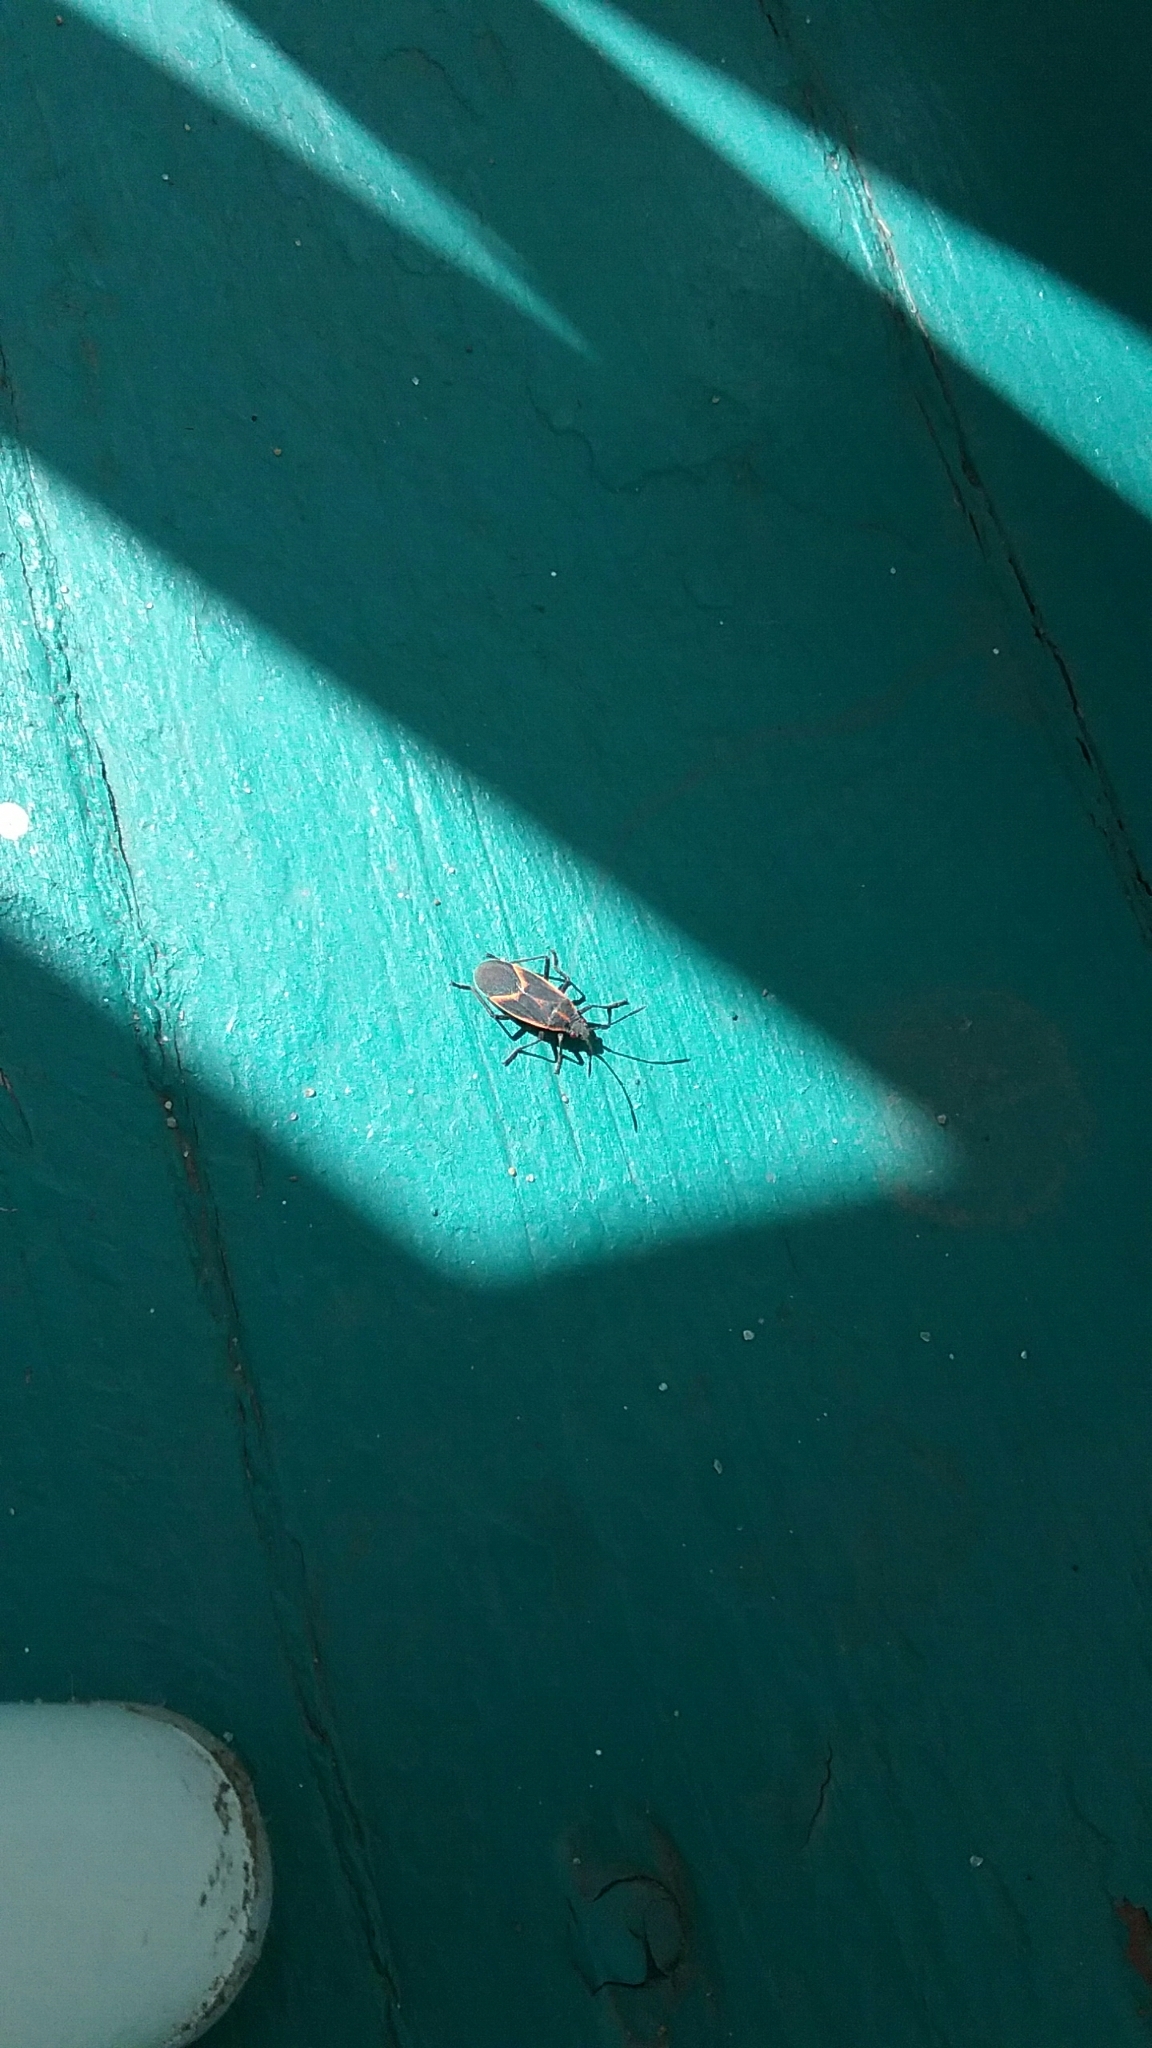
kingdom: Animalia
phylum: Arthropoda
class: Insecta
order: Hemiptera
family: Rhopalidae
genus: Boisea
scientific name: Boisea trivittata
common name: Boxelder bug
